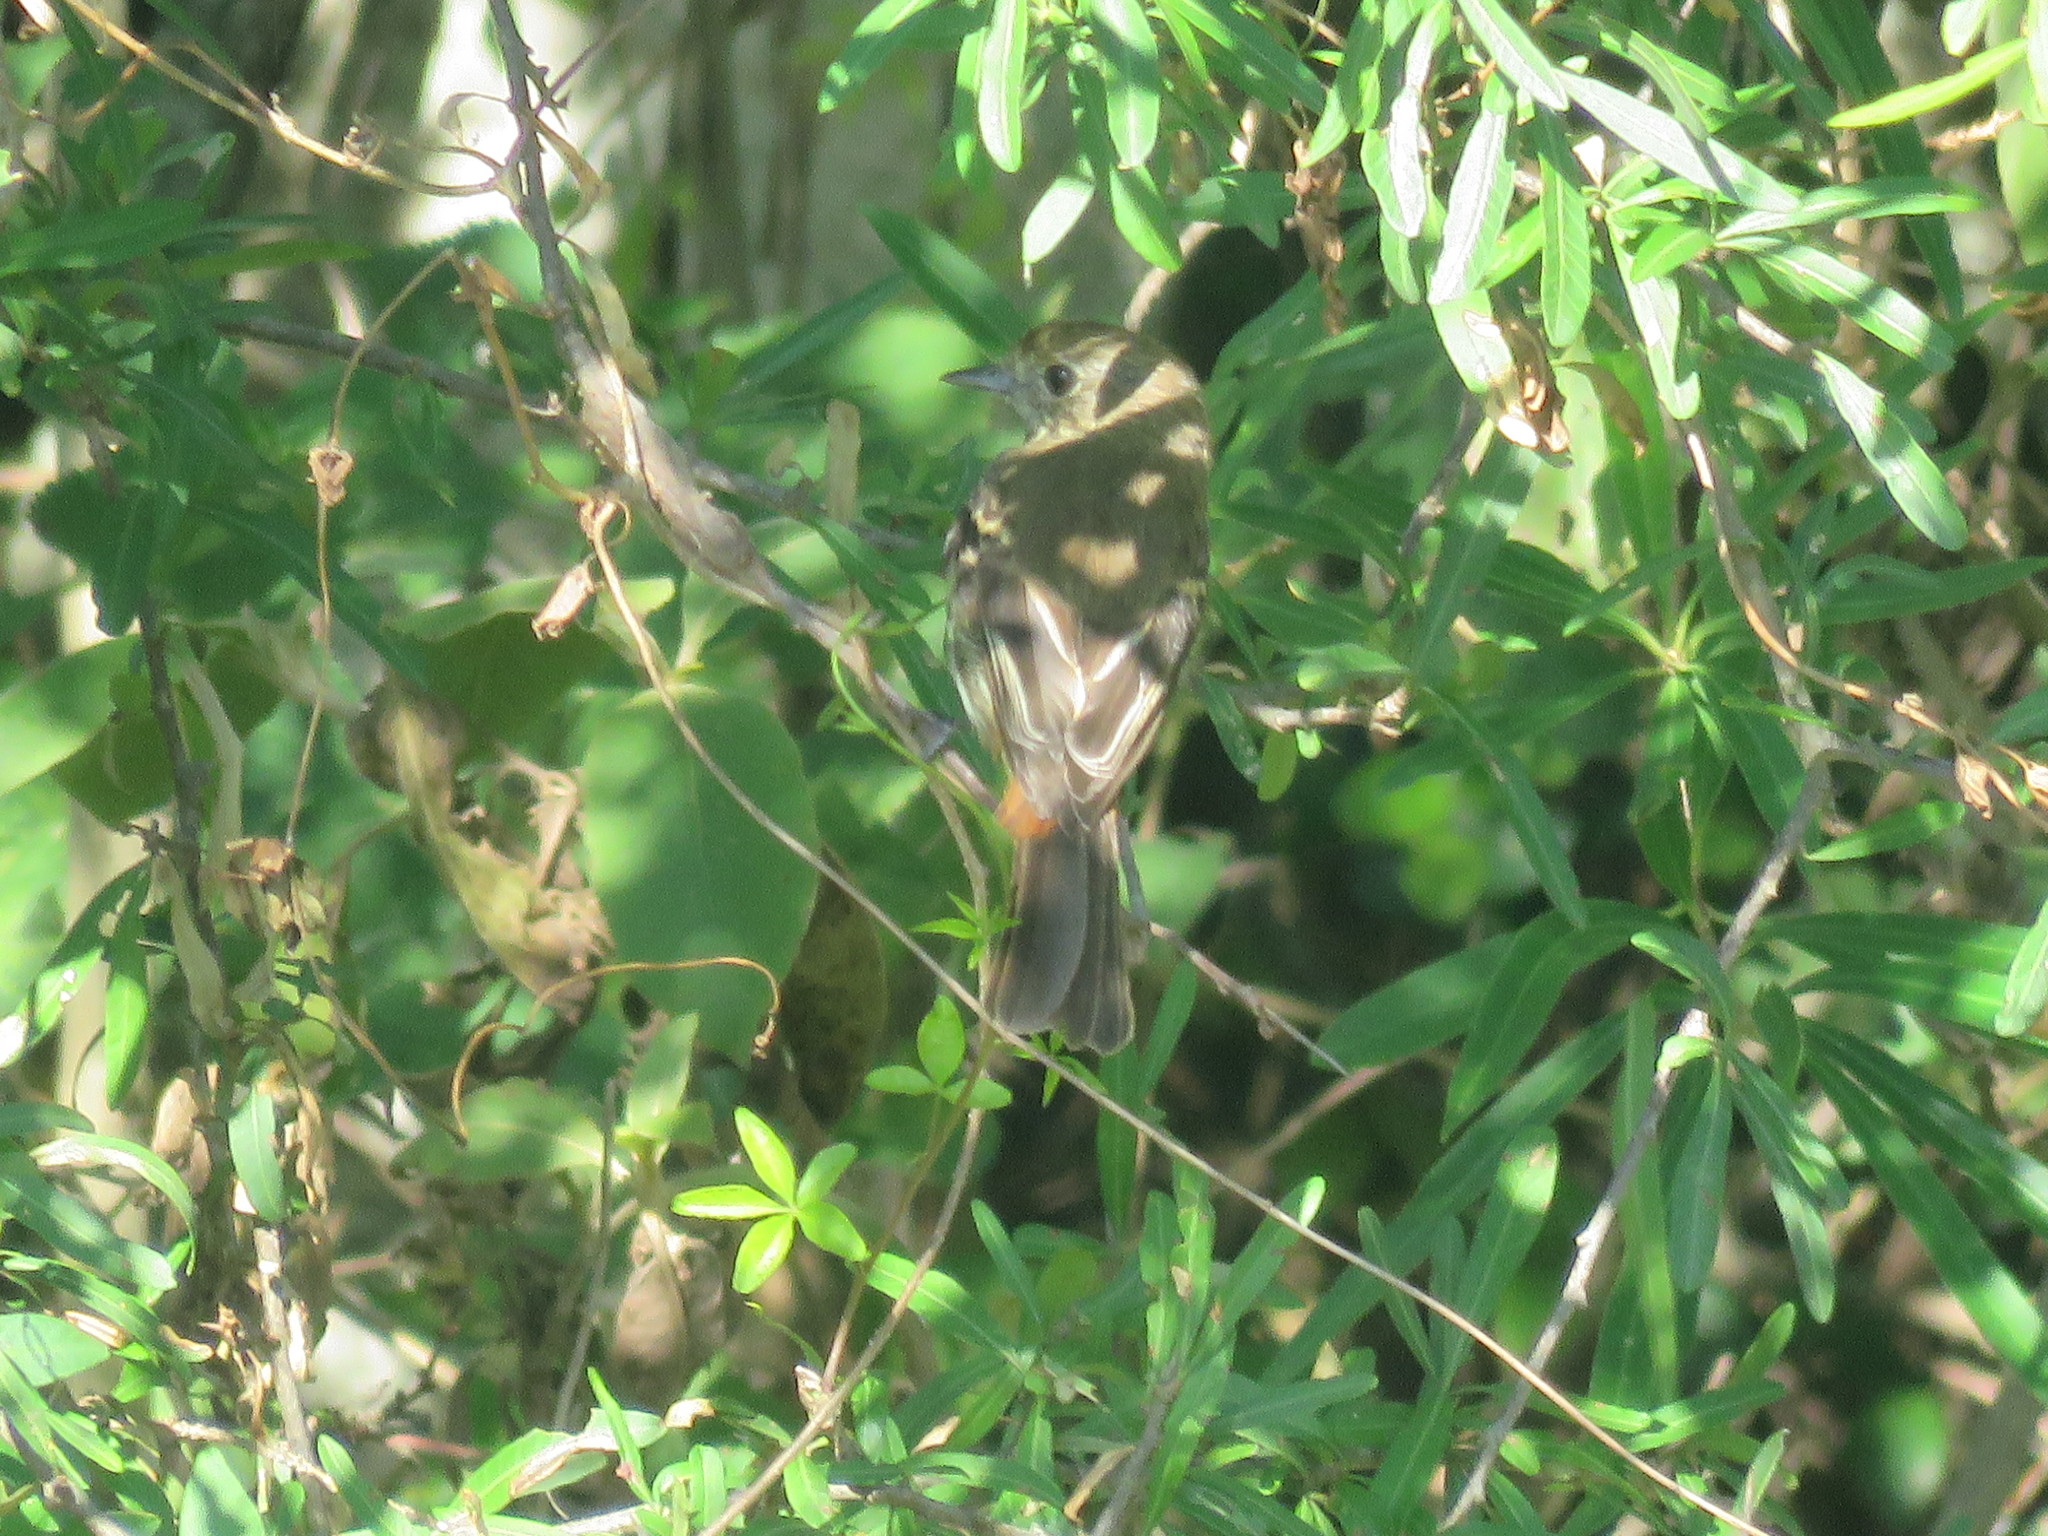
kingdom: Animalia
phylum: Chordata
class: Aves
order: Passeriformes
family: Tyrannidae
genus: Knipolegus
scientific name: Knipolegus cyanirostris
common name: Blue-billed black tyrant
